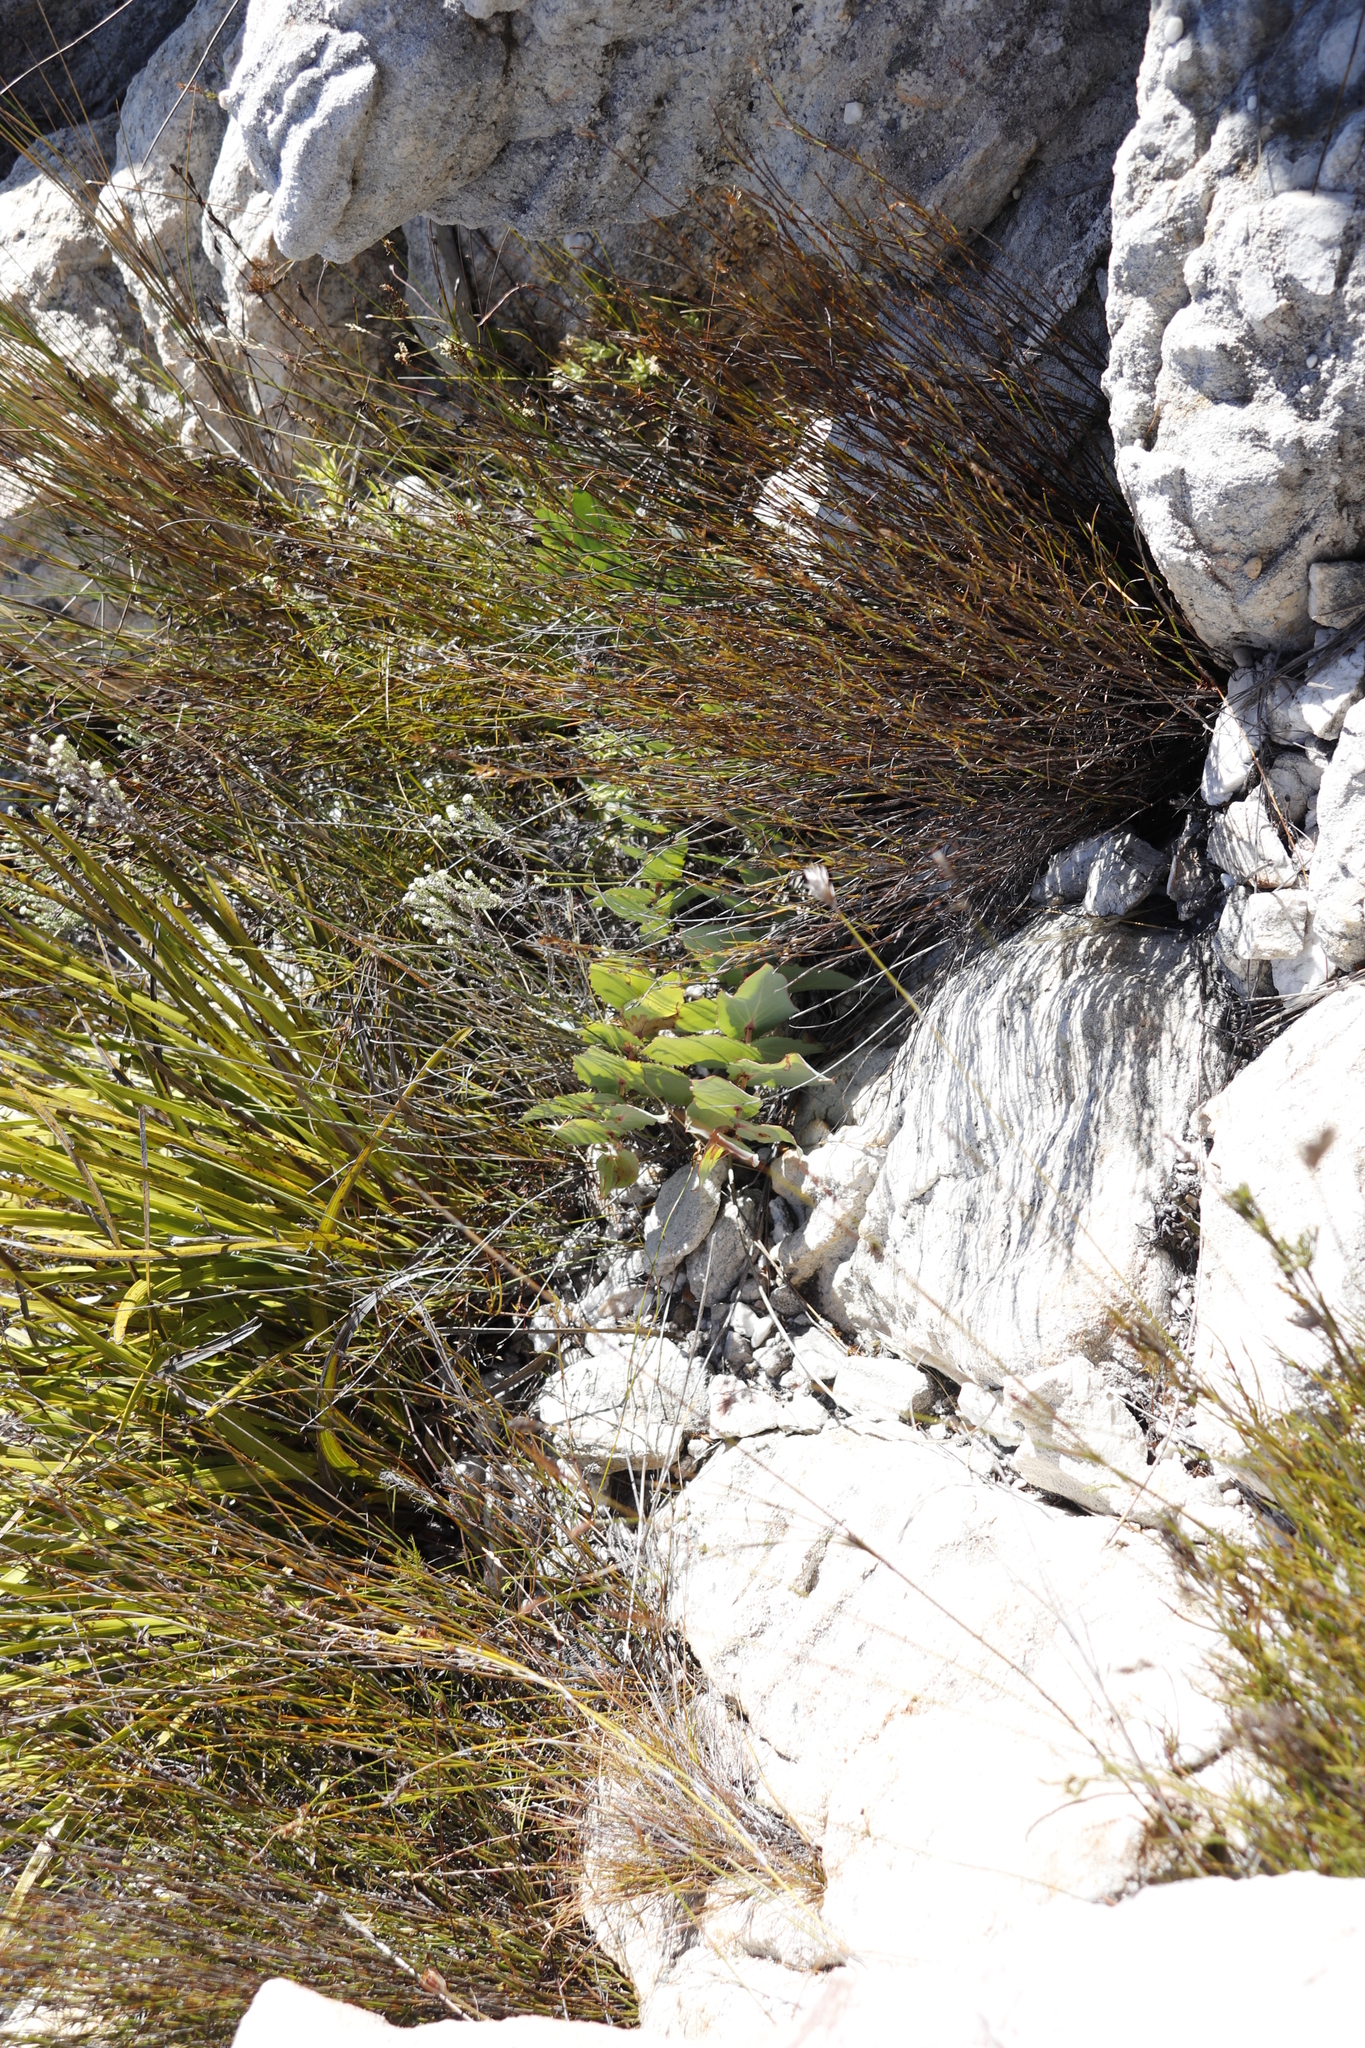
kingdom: Plantae
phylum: Tracheophyta
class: Magnoliopsida
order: Proteales
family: Proteaceae
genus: Protea
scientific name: Protea amplexicaulis
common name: Clasping-leaf sugarbush
